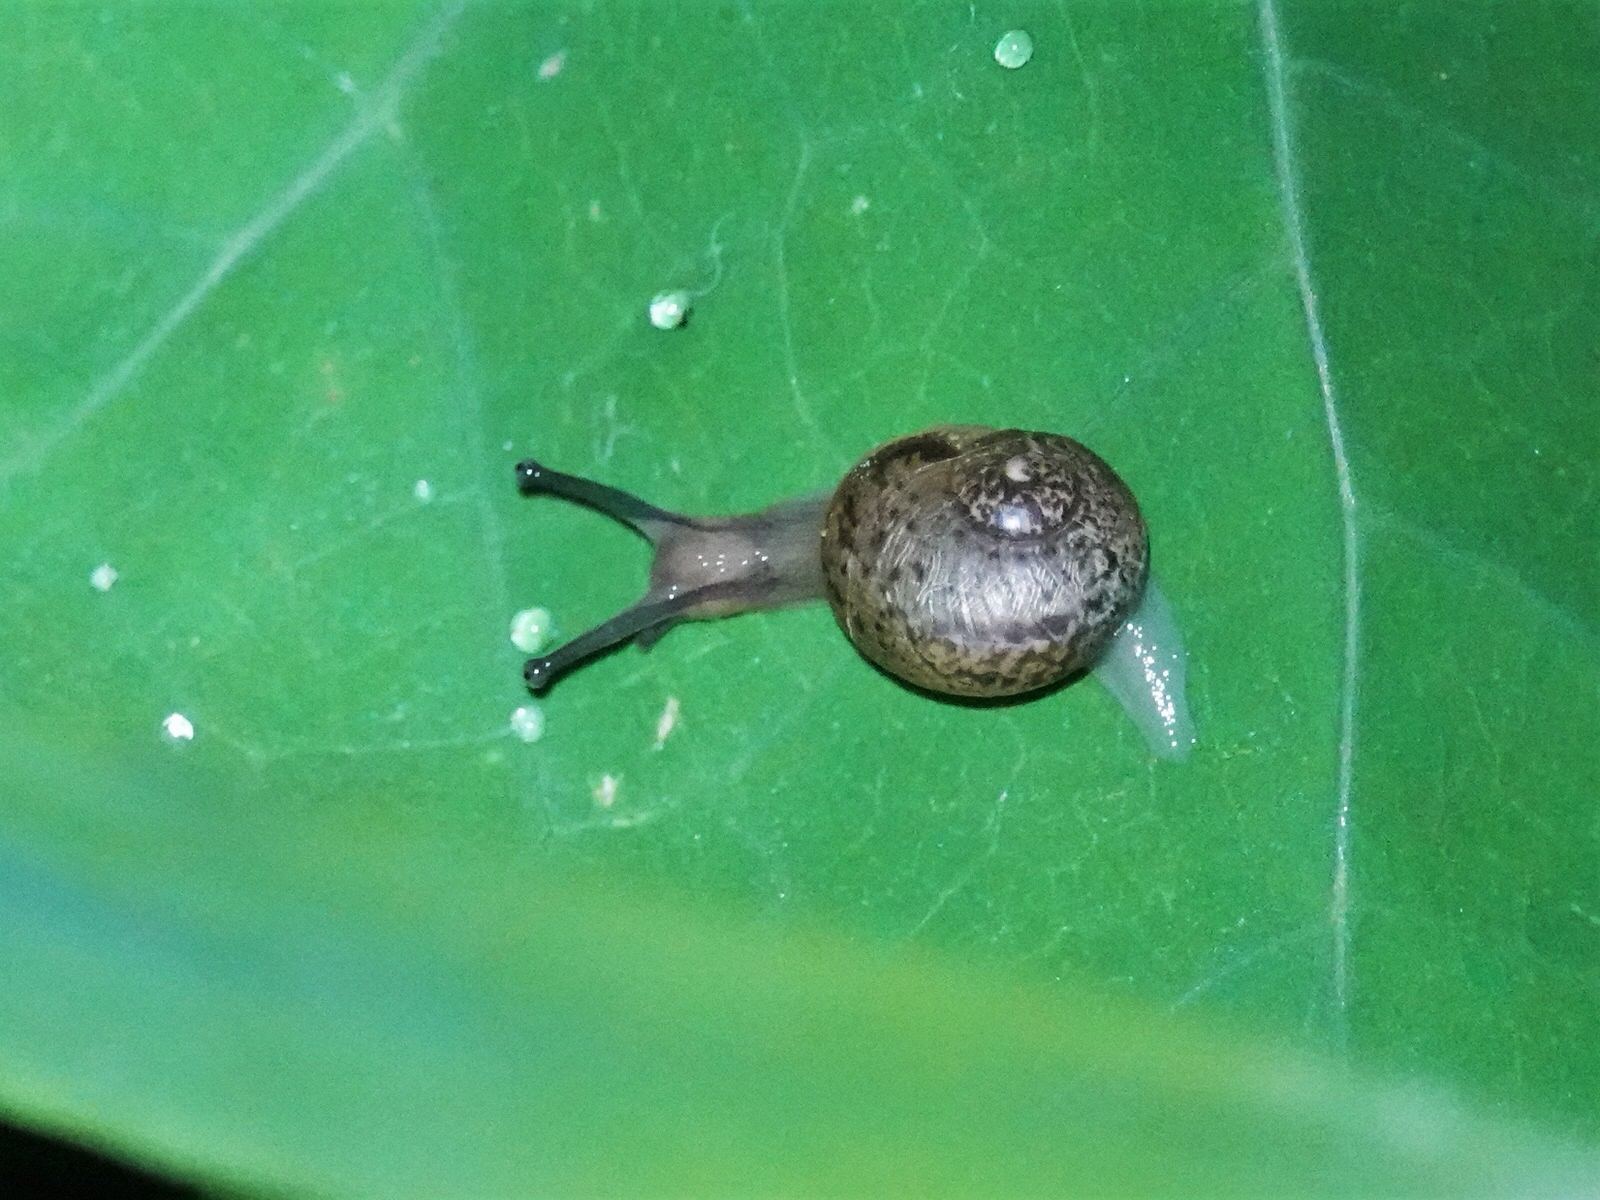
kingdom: Animalia
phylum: Mollusca
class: Gastropoda
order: Stylommatophora
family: Helicidae
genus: Cornu
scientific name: Cornu aspersum
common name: Brown garden snail
